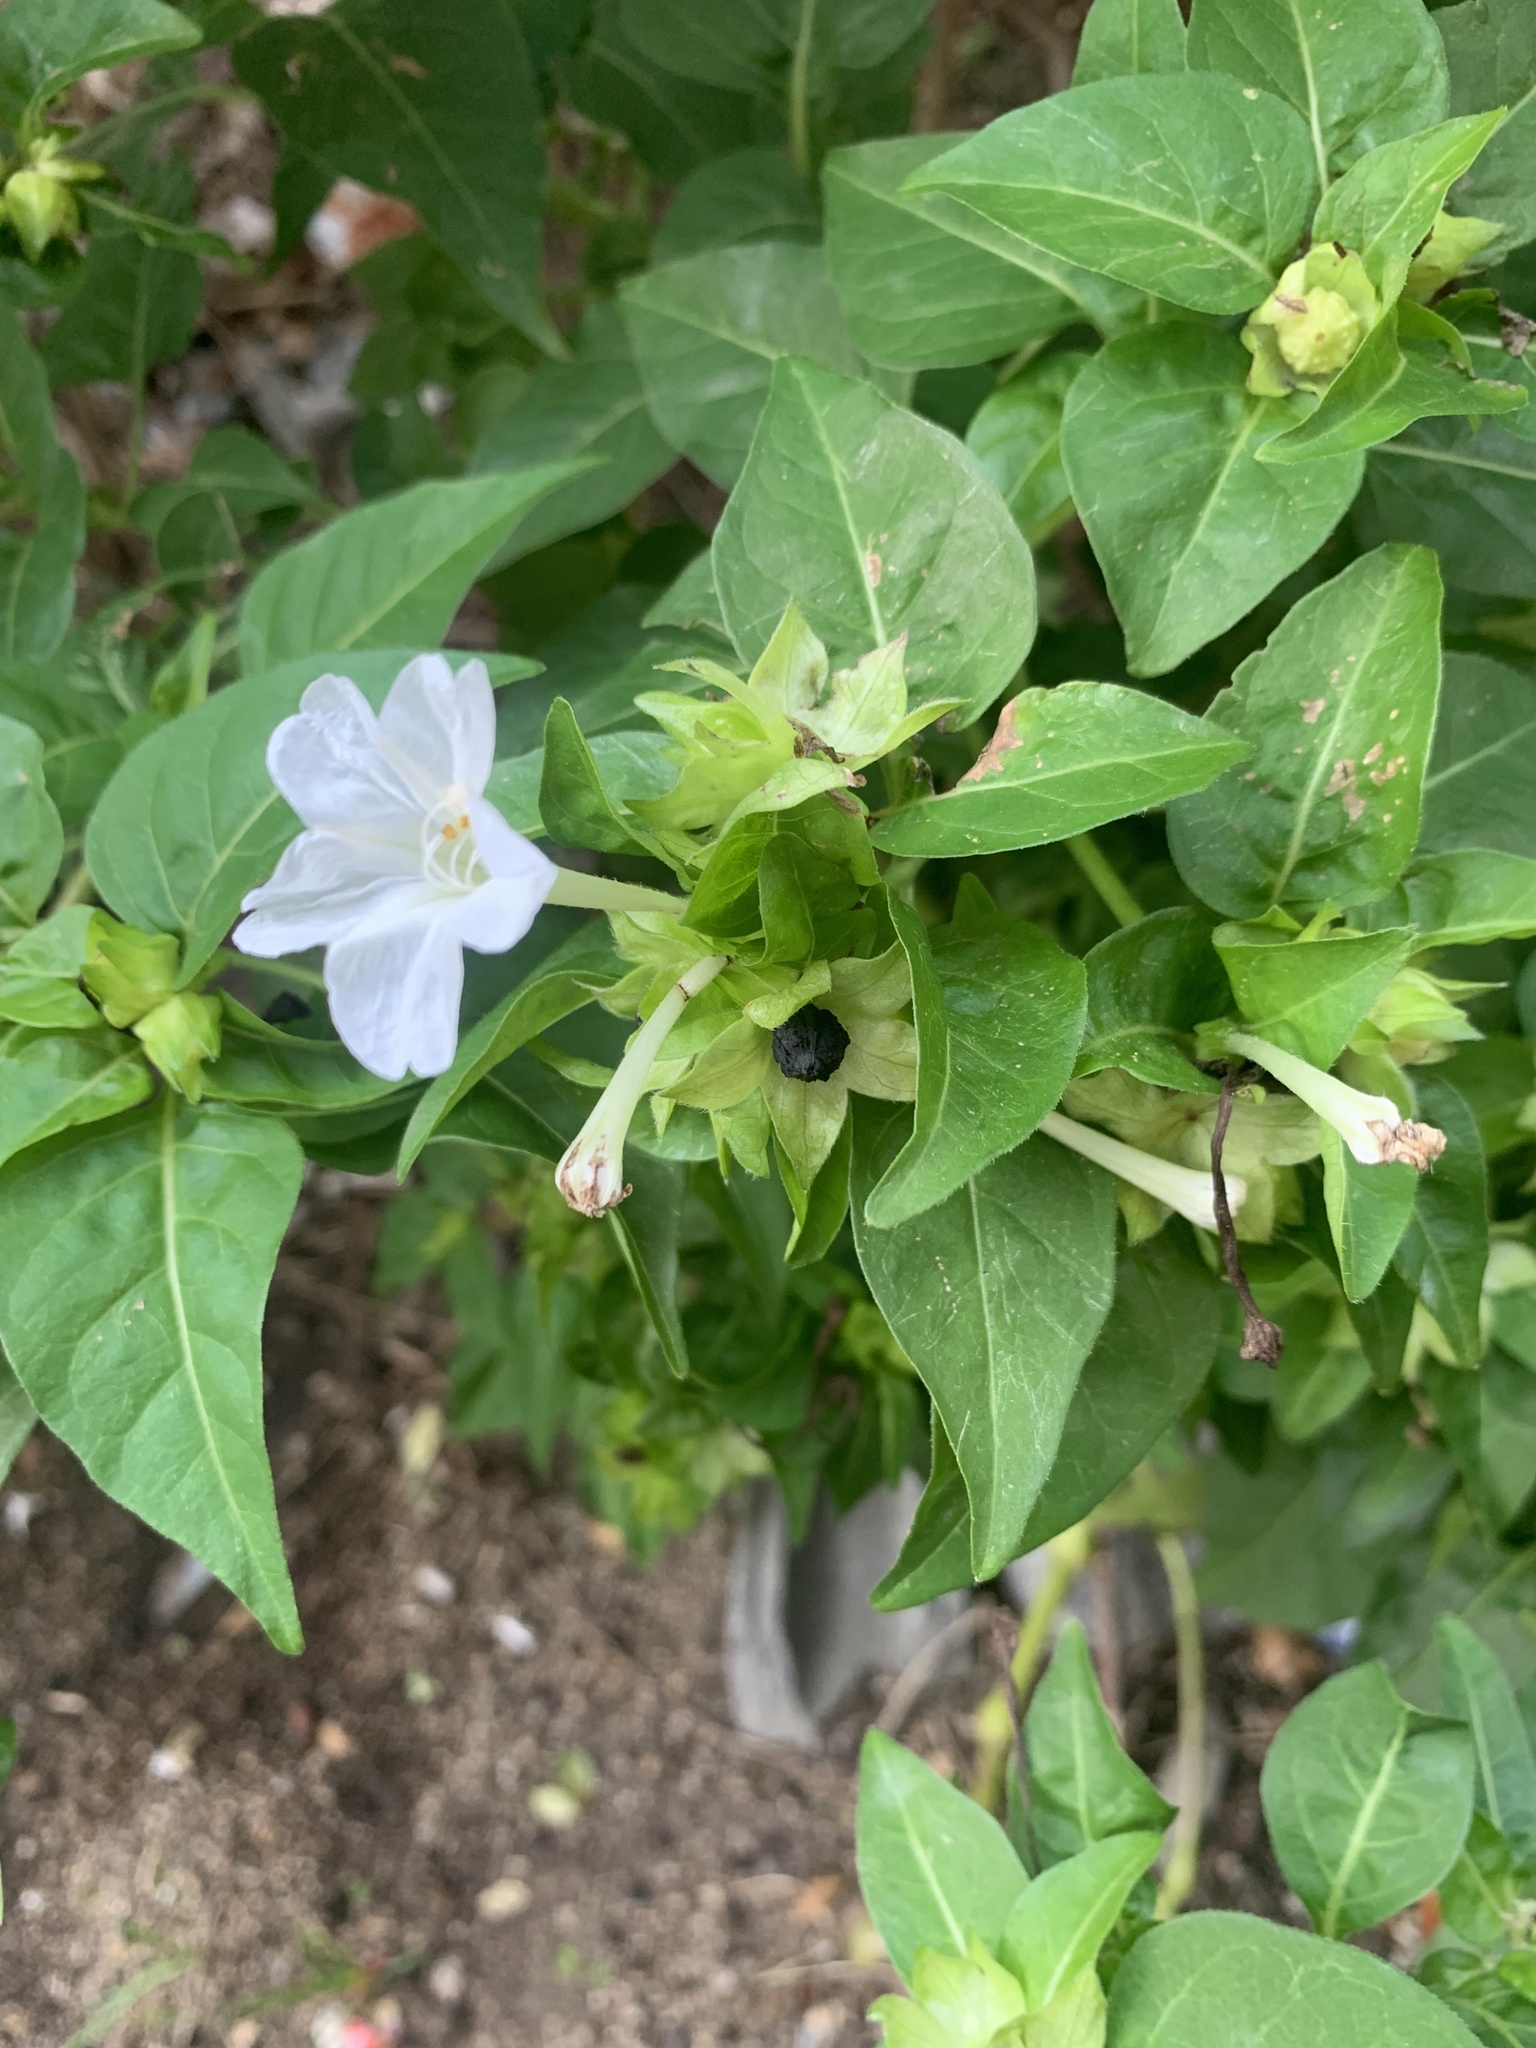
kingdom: Plantae
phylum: Tracheophyta
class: Magnoliopsida
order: Caryophyllales
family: Nyctaginaceae
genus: Mirabilis
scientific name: Mirabilis jalapa
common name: Marvel-of-peru
